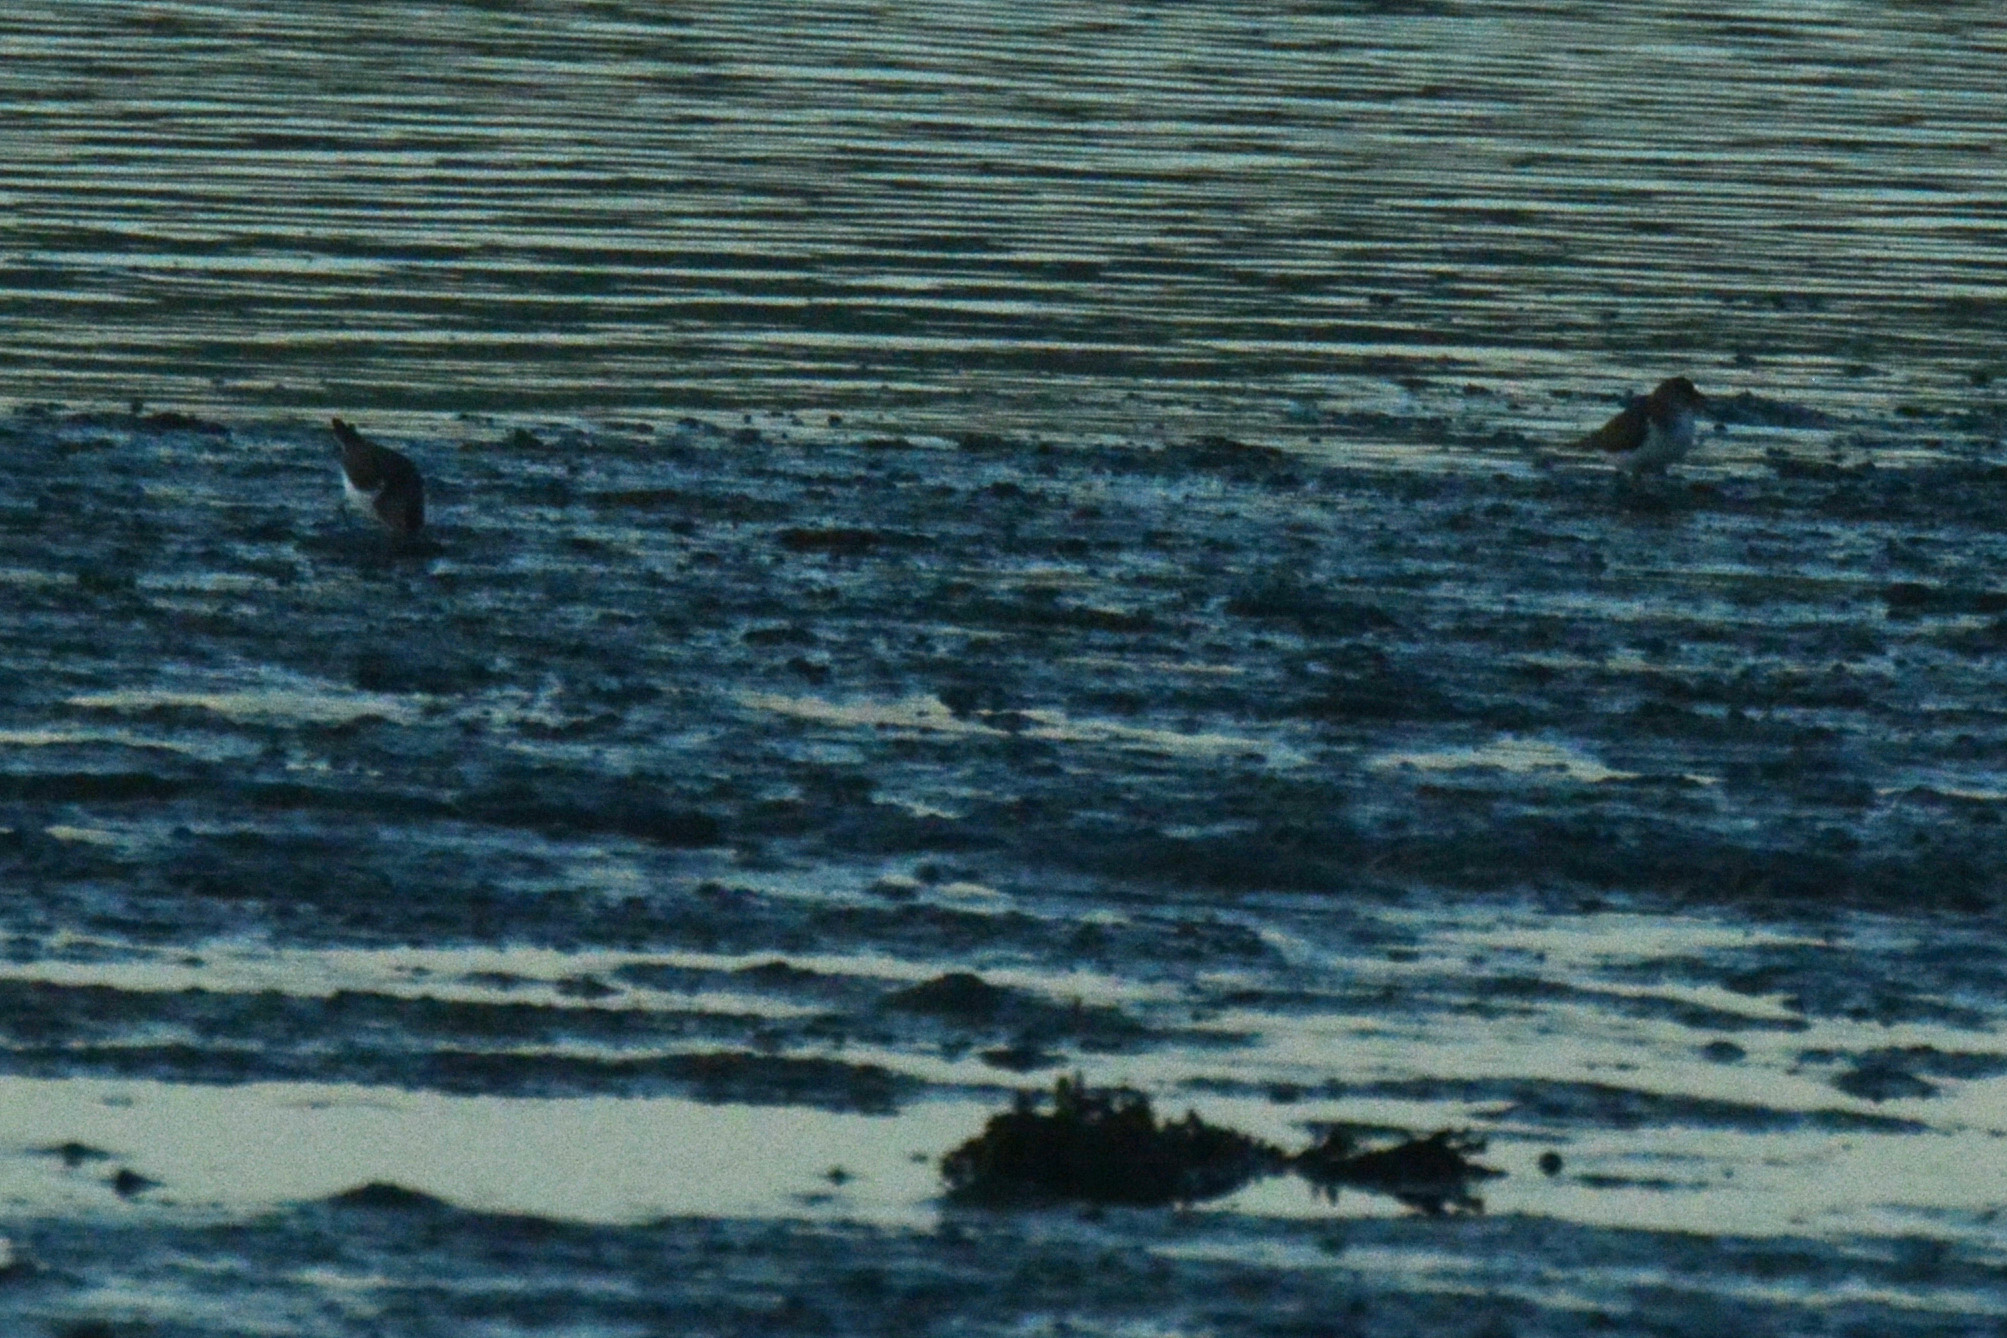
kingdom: Animalia
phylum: Chordata
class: Aves
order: Charadriiformes
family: Scolopacidae
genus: Actitis
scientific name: Actitis hypoleucos
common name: Common sandpiper
